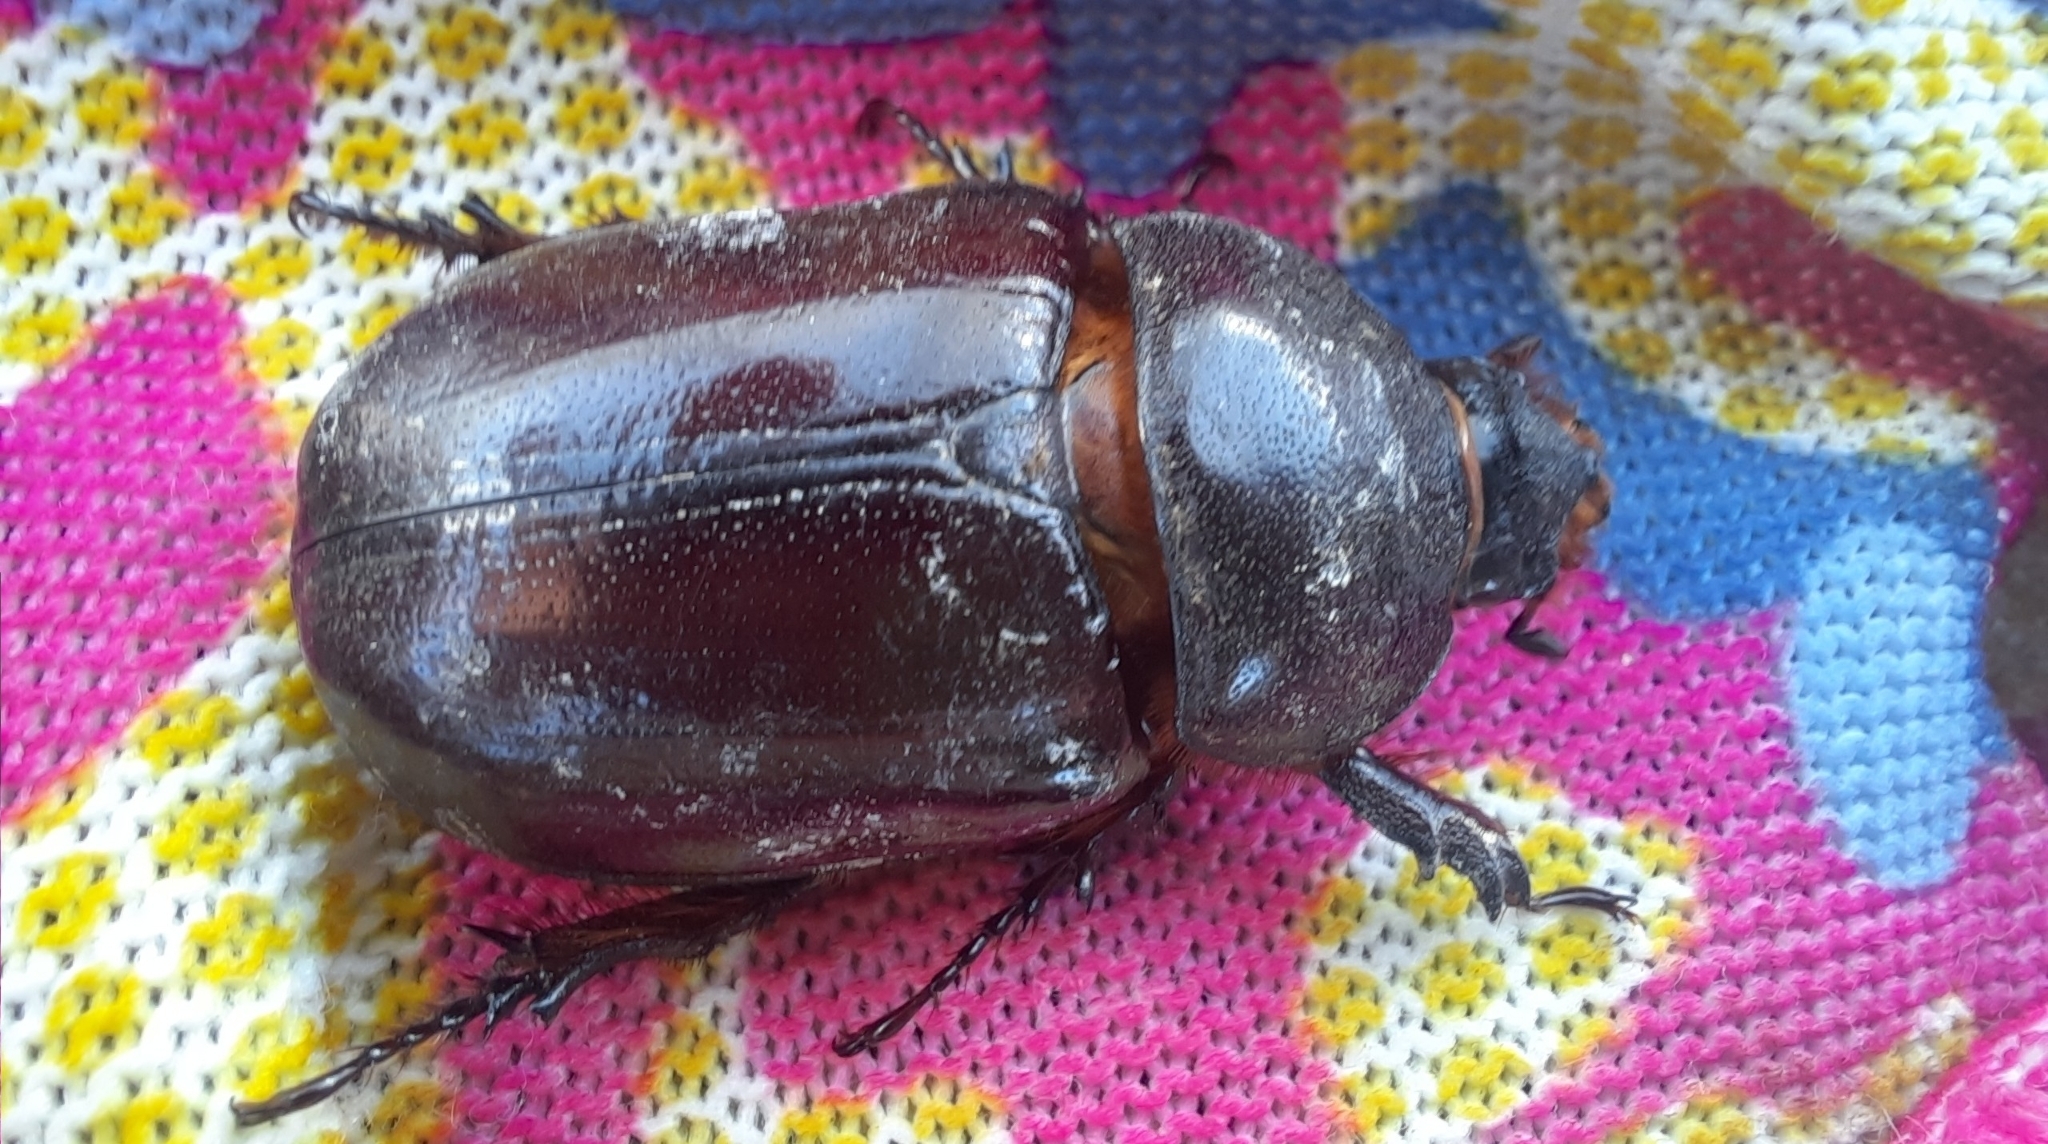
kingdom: Animalia
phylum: Arthropoda
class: Insecta
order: Coleoptera
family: Scarabaeidae
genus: Oryctes
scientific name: Oryctes nasicornis
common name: European rhinoceros beetle
